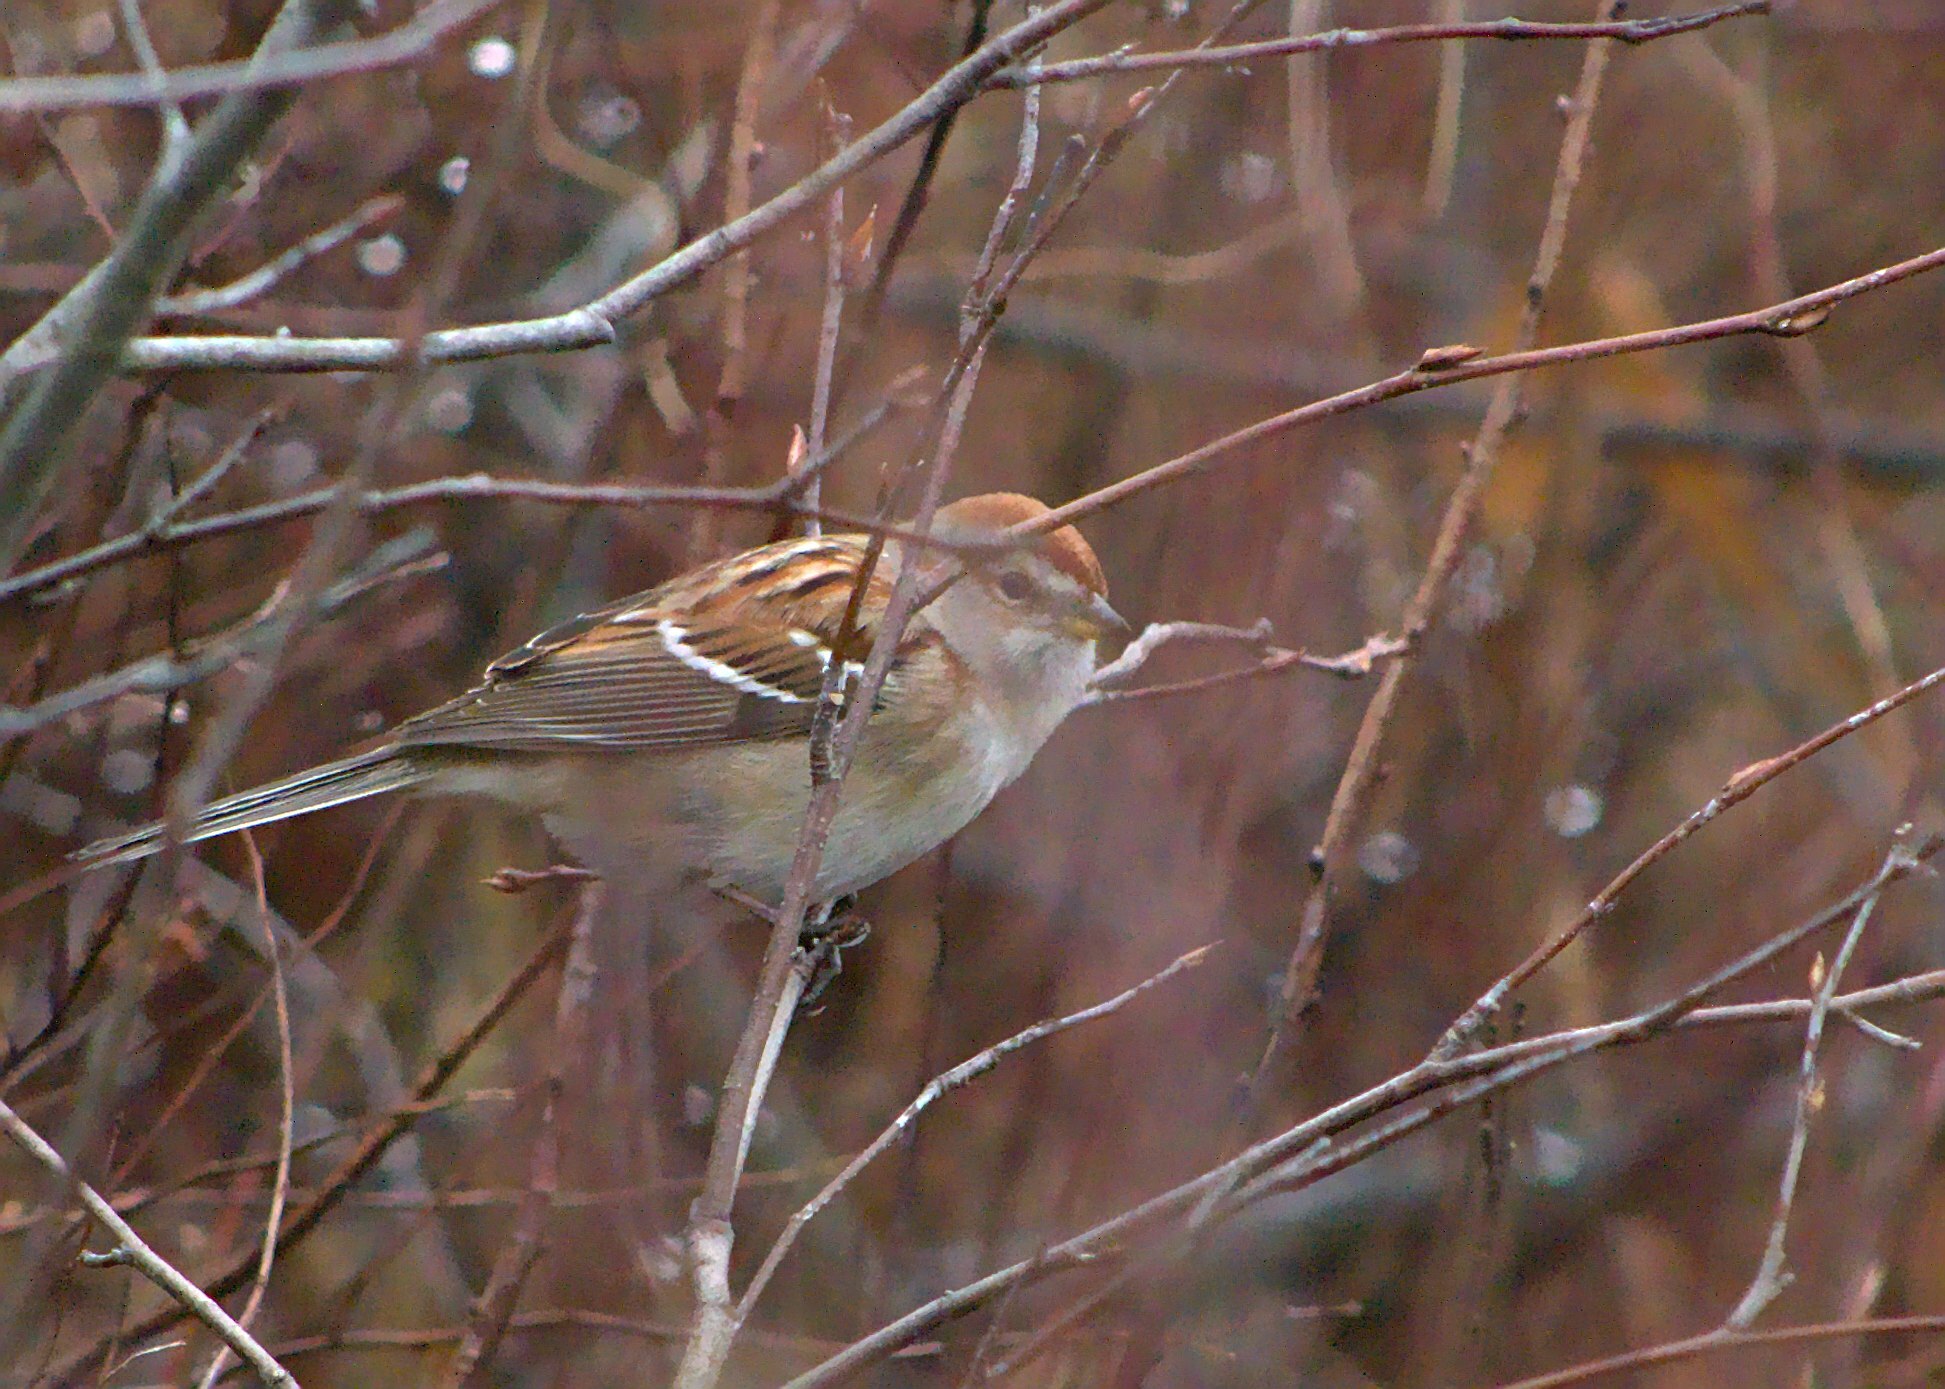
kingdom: Animalia
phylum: Chordata
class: Aves
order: Passeriformes
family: Passerellidae
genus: Spizelloides
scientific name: Spizelloides arborea
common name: American tree sparrow
